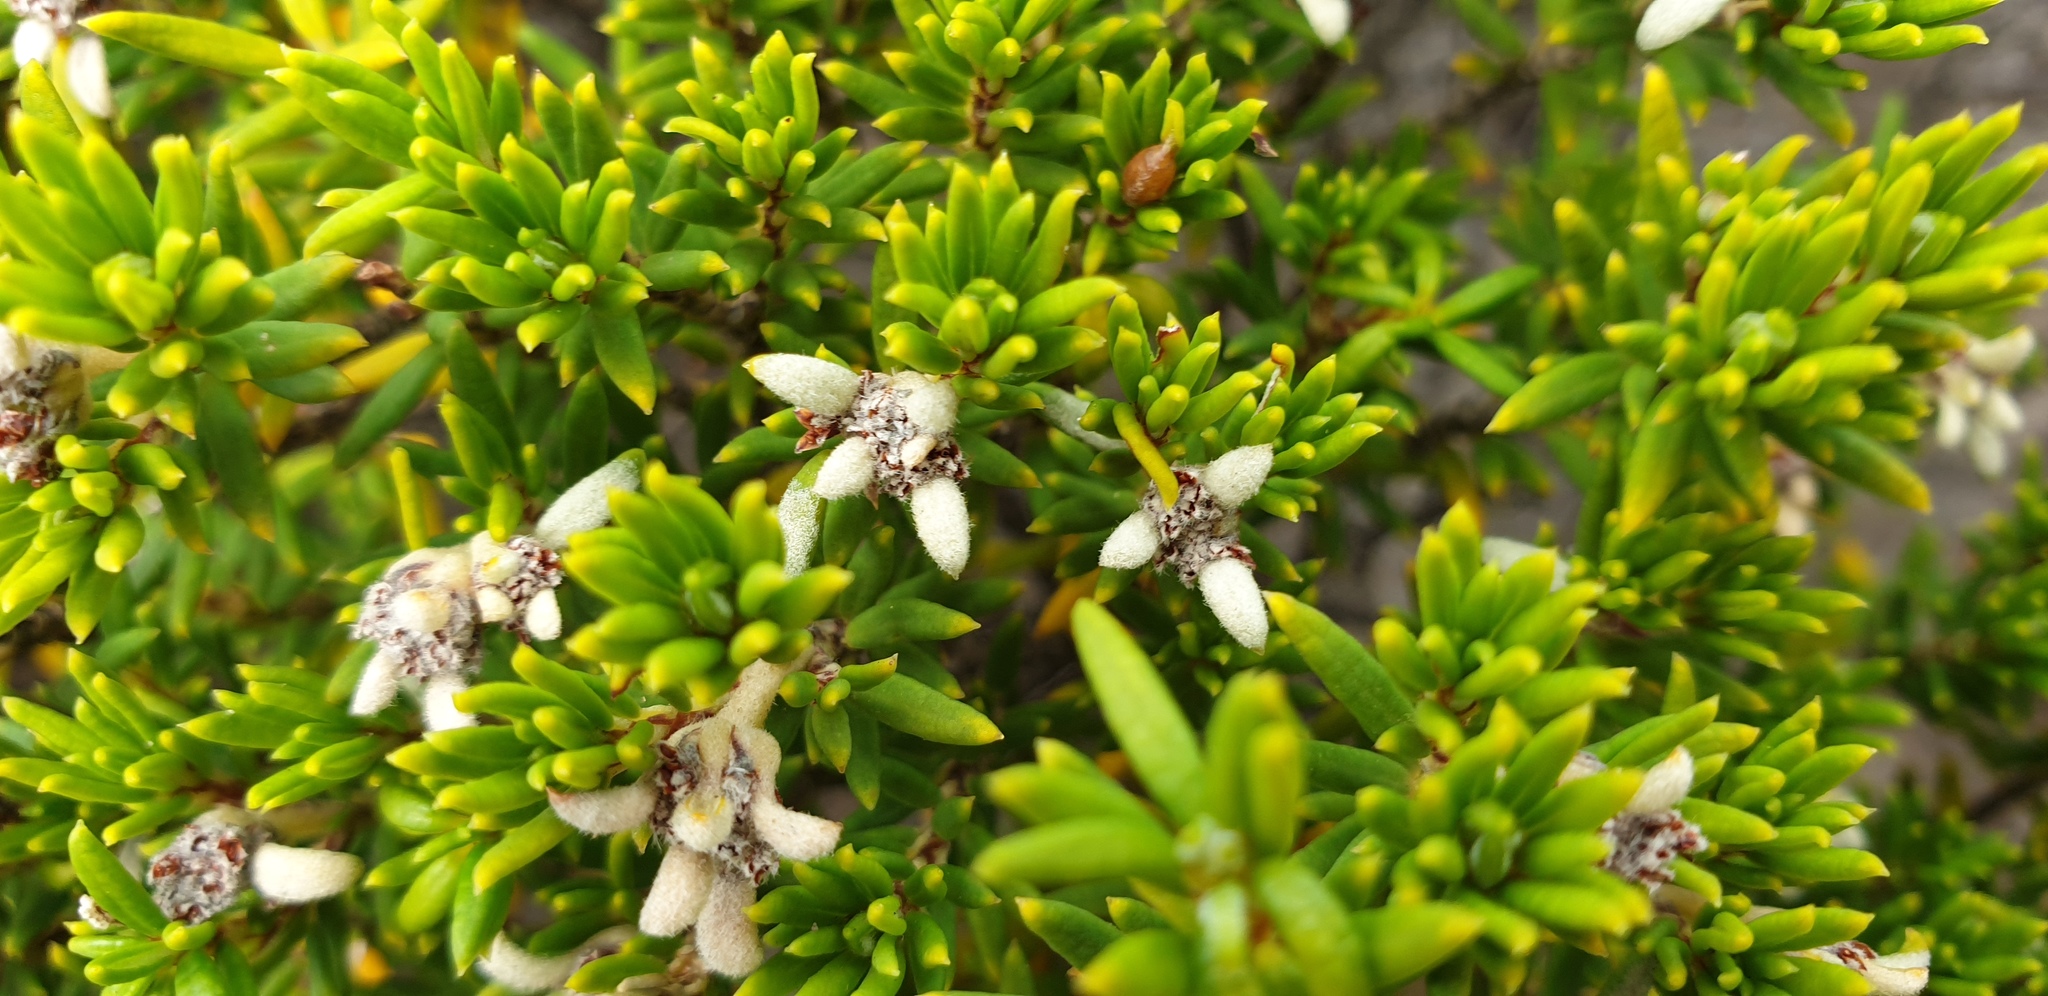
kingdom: Plantae
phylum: Tracheophyta
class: Magnoliopsida
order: Rosales
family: Rhamnaceae
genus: Spyridium
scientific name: Spyridium phylicoides
